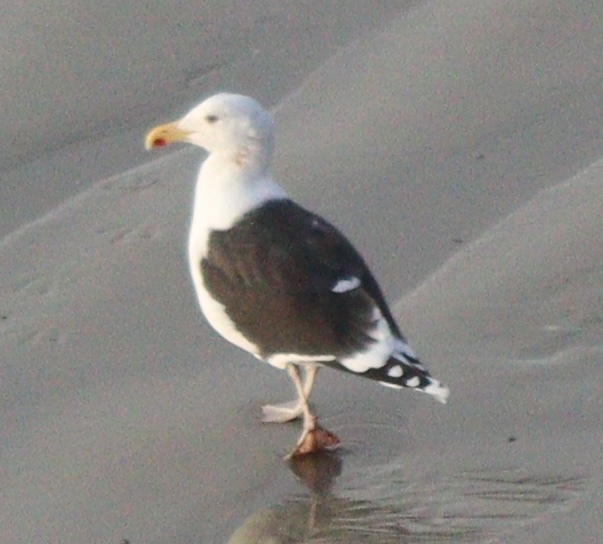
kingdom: Animalia
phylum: Chordata
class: Aves
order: Charadriiformes
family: Laridae
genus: Larus
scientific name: Larus marinus
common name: Great black-backed gull
